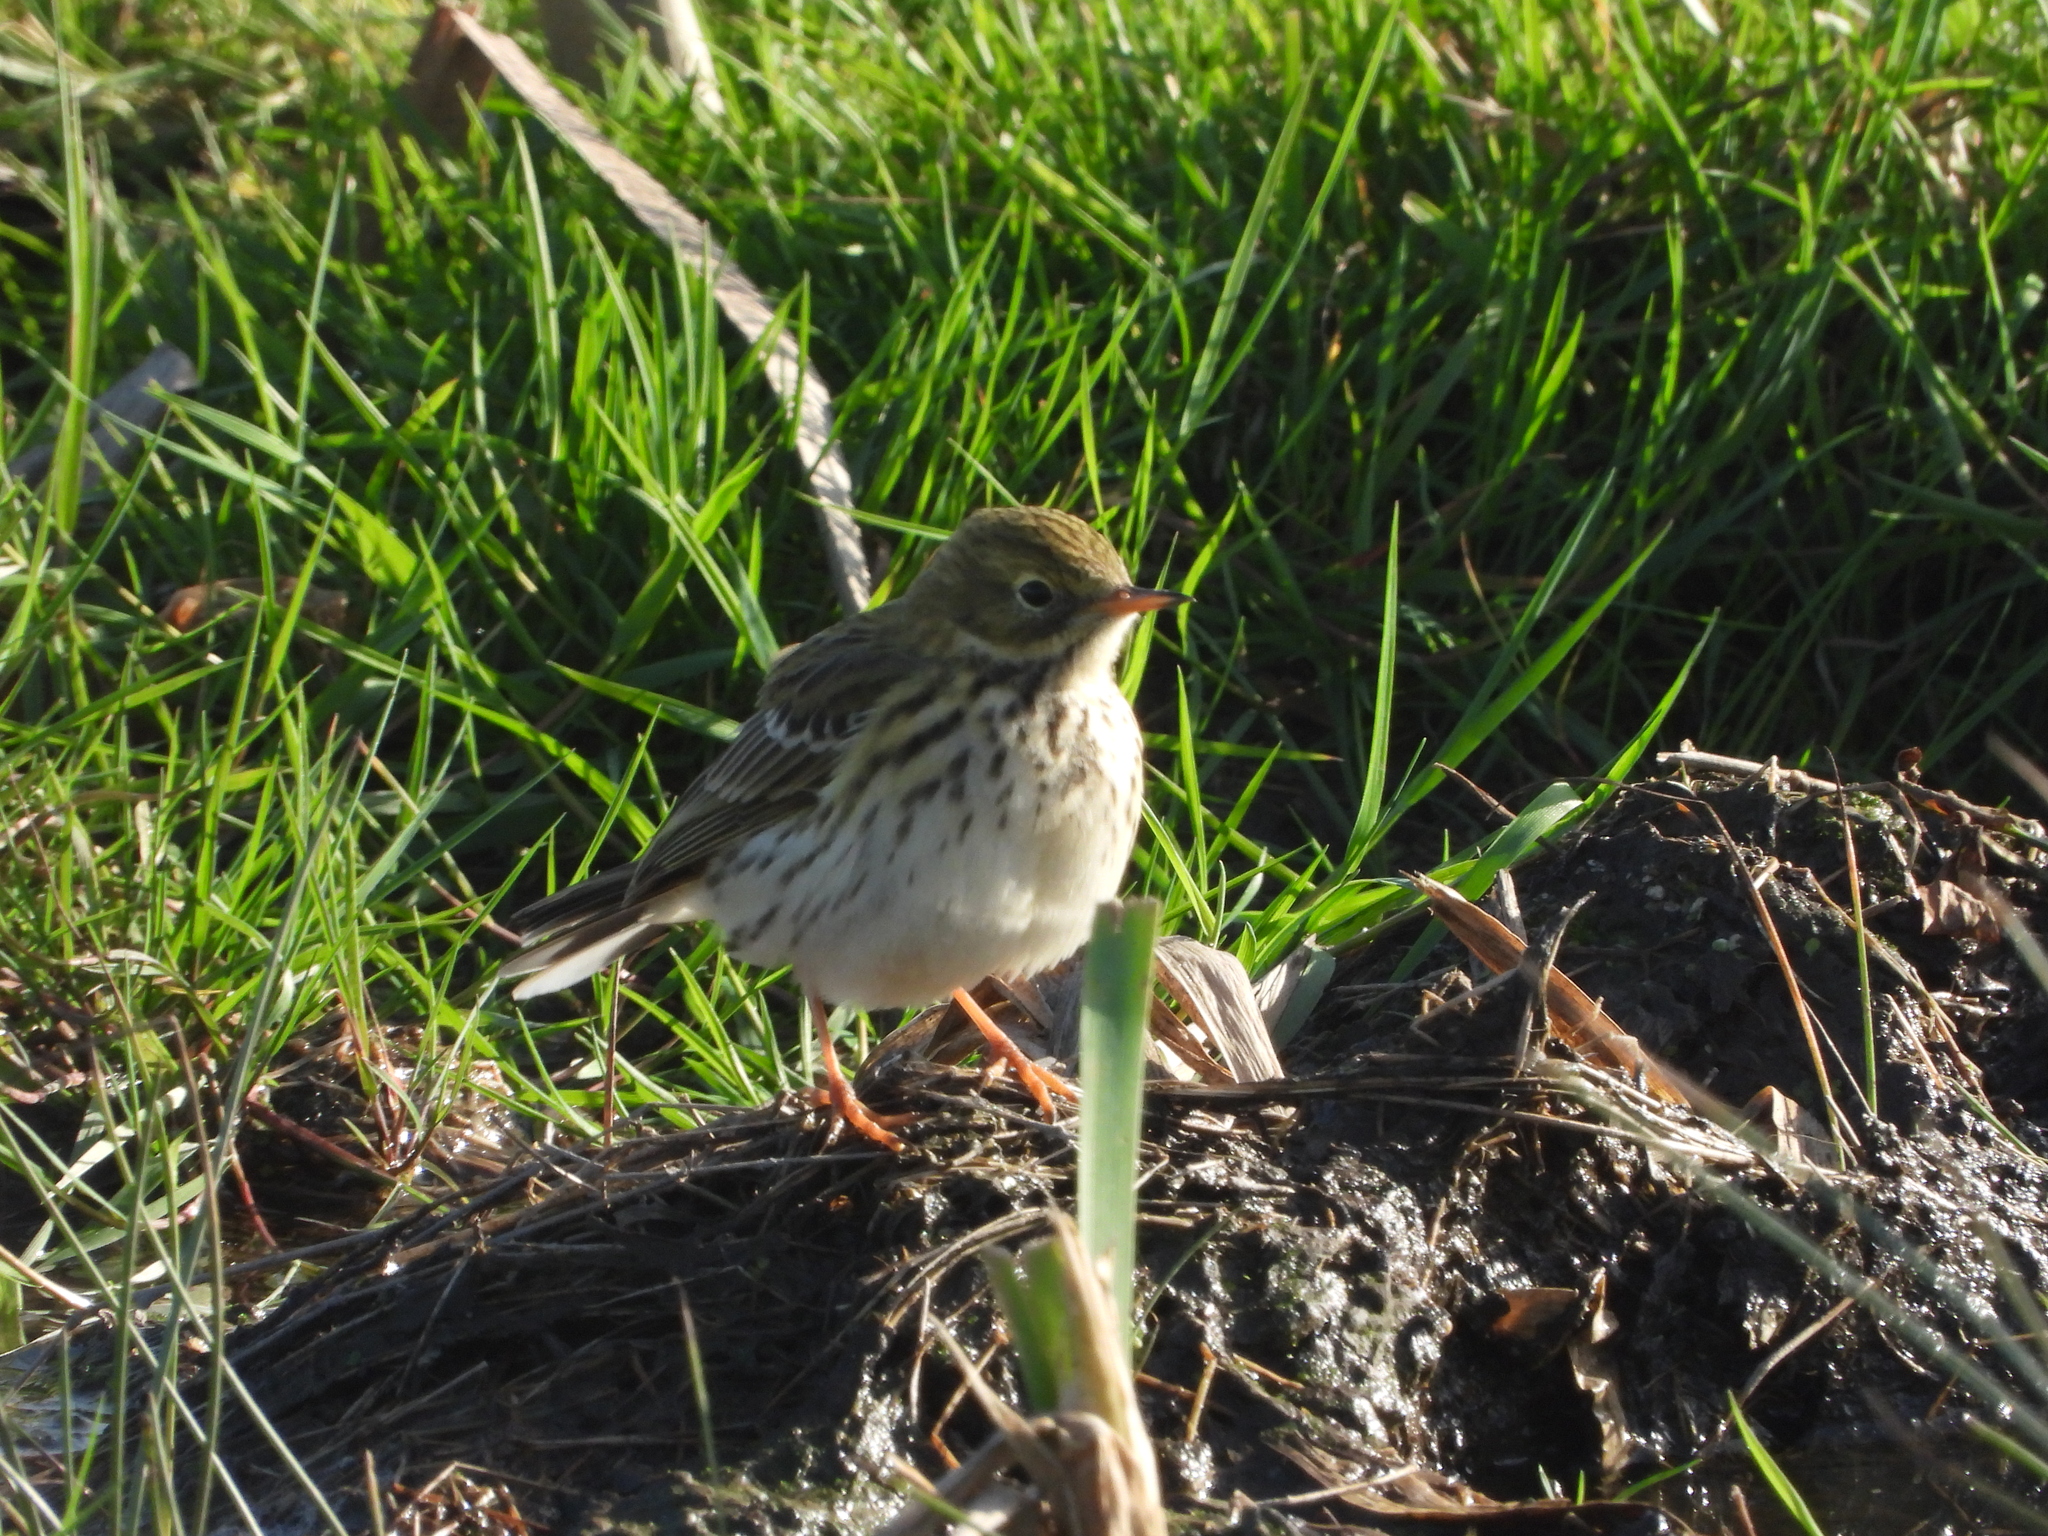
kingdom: Animalia
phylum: Chordata
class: Aves
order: Passeriformes
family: Motacillidae
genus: Anthus
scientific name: Anthus pratensis
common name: Meadow pipit
